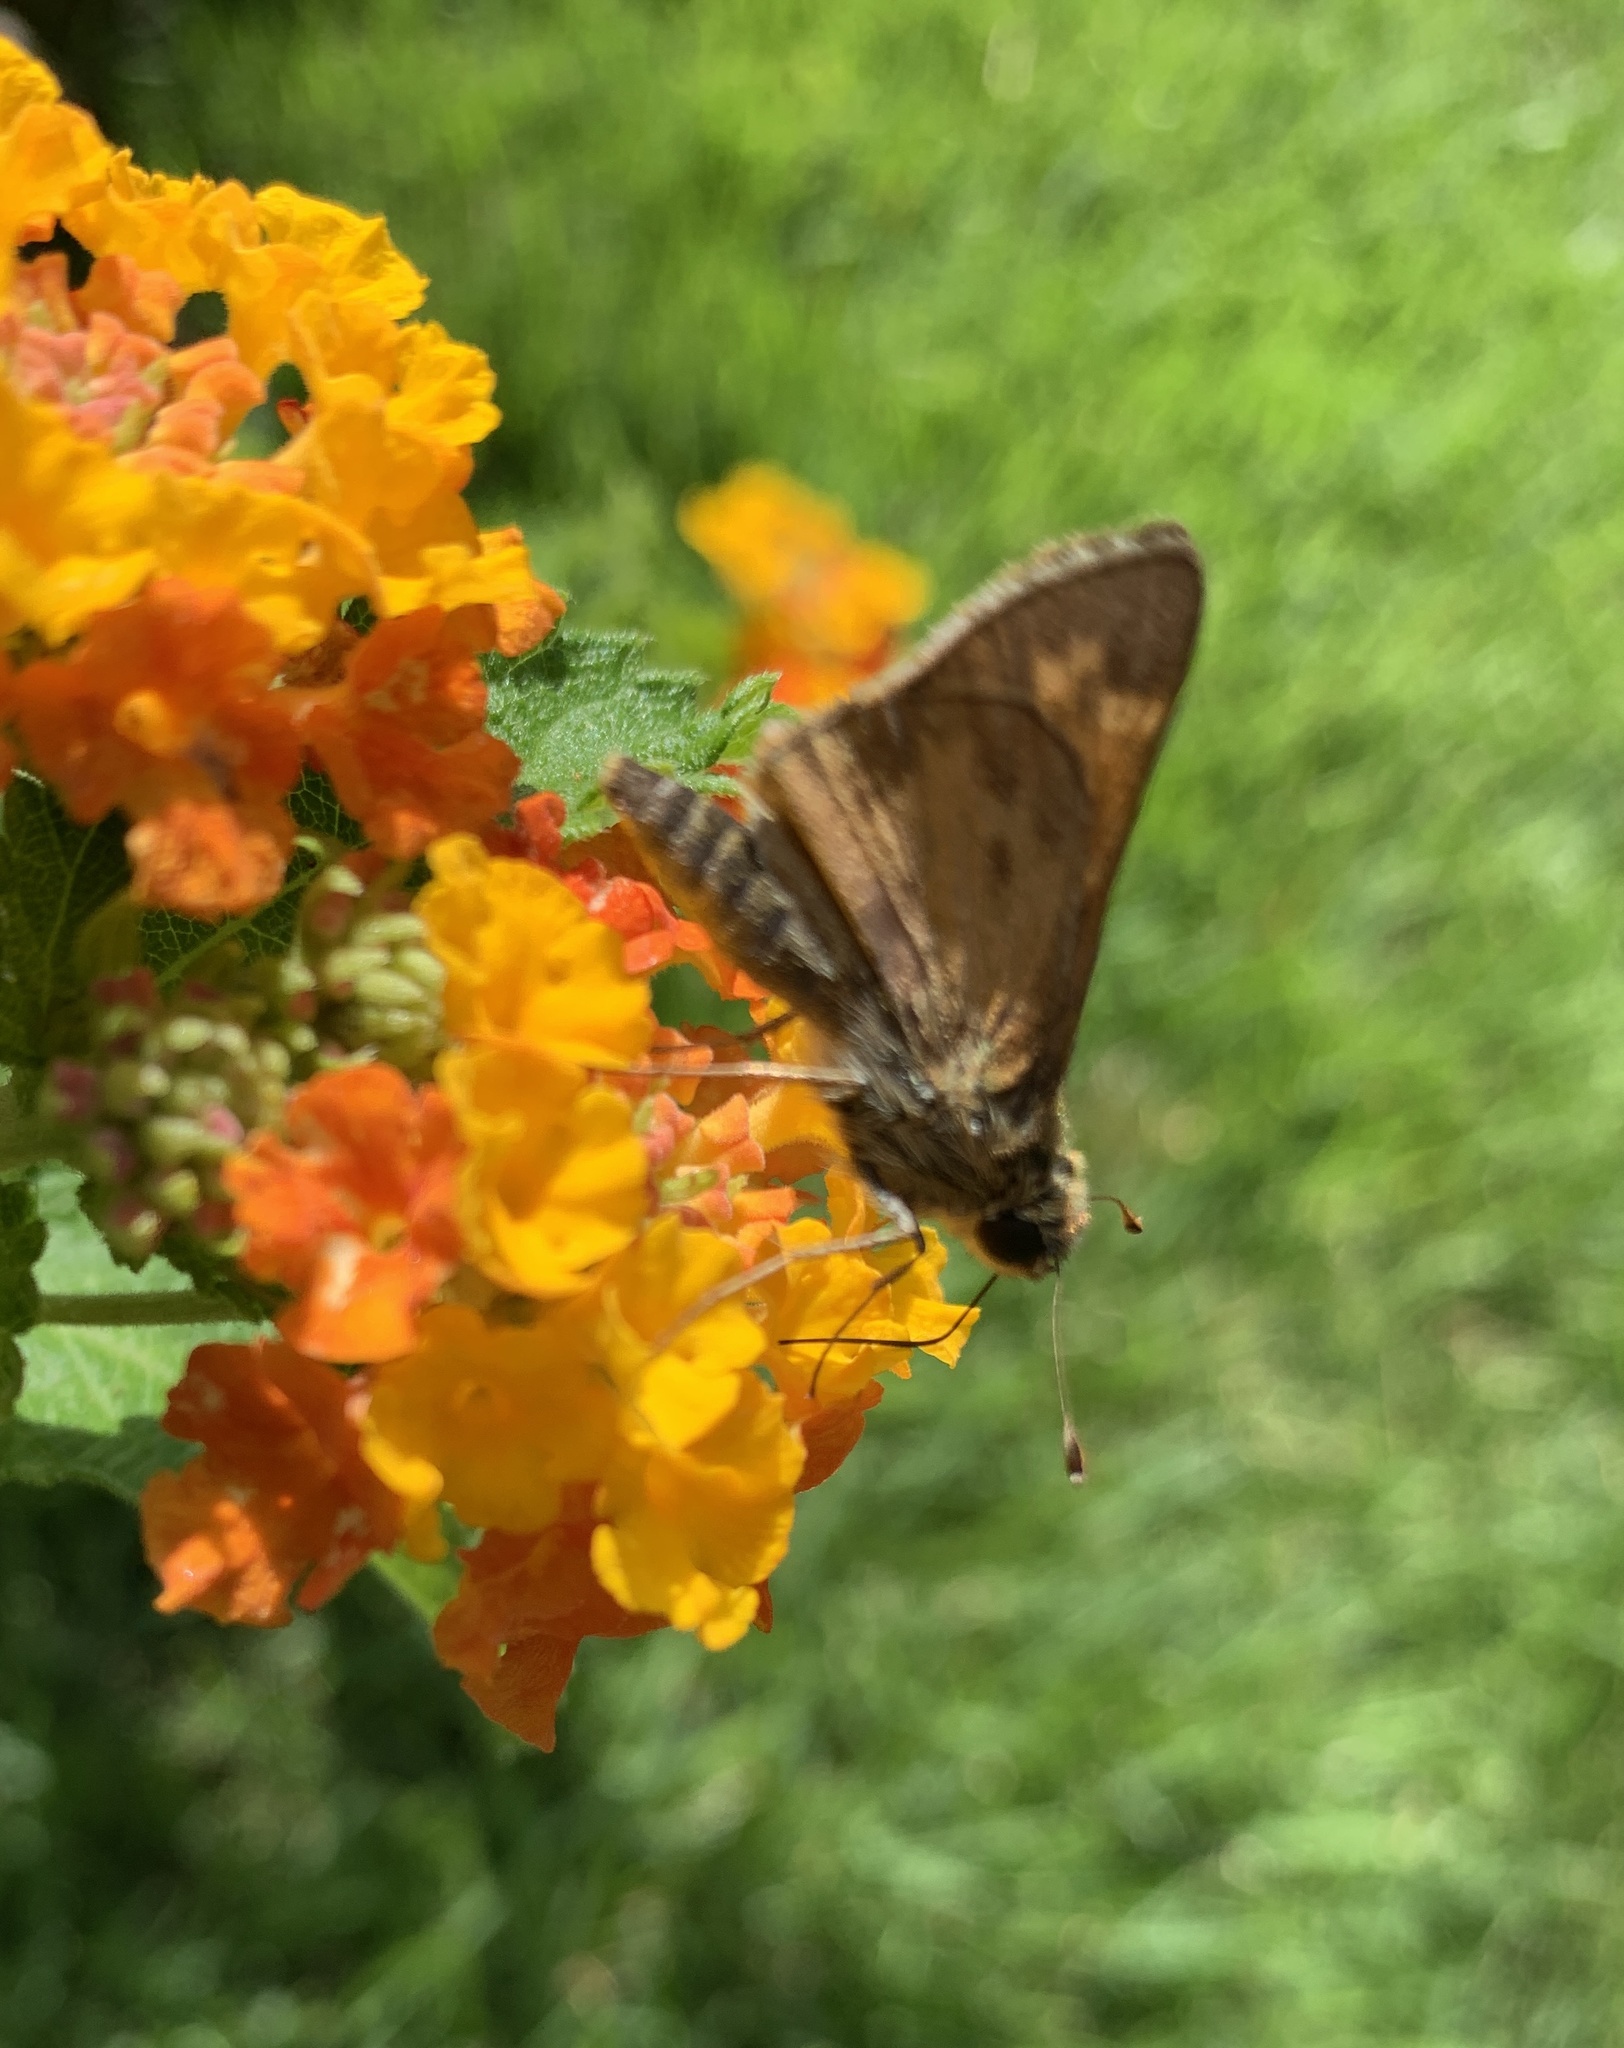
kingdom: Animalia
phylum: Arthropoda
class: Insecta
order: Lepidoptera
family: Hesperiidae
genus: Atalopedes
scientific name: Atalopedes
